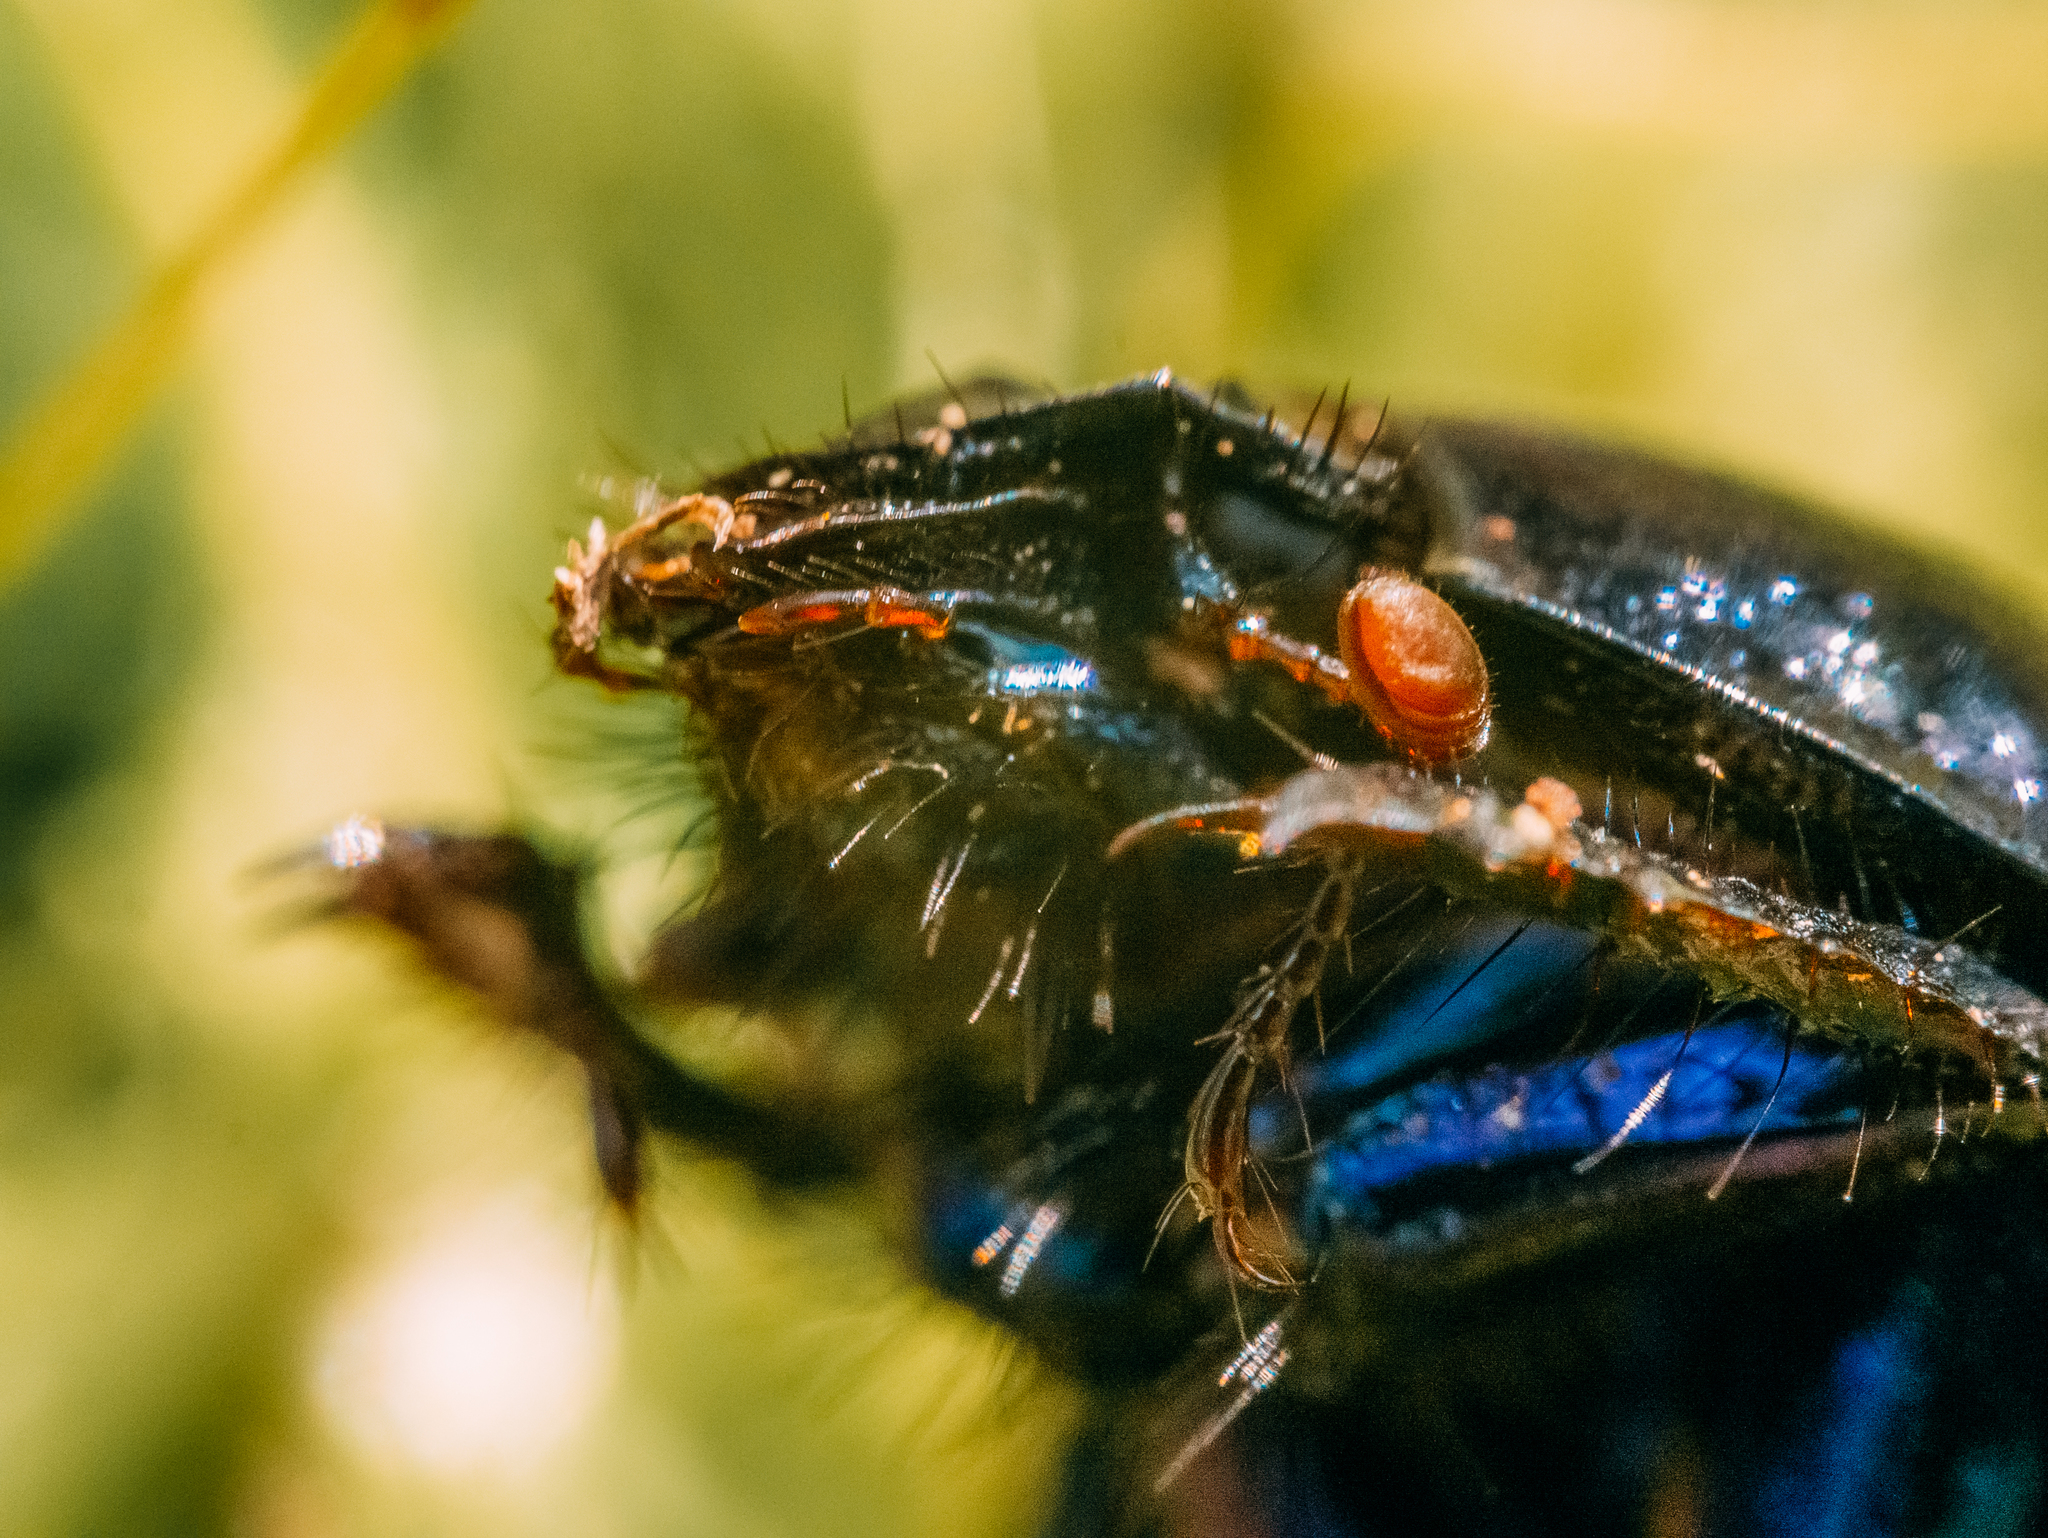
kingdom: Animalia
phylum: Arthropoda
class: Insecta
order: Coleoptera
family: Geotrupidae
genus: Anoplotrupes
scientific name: Anoplotrupes stercorosus
